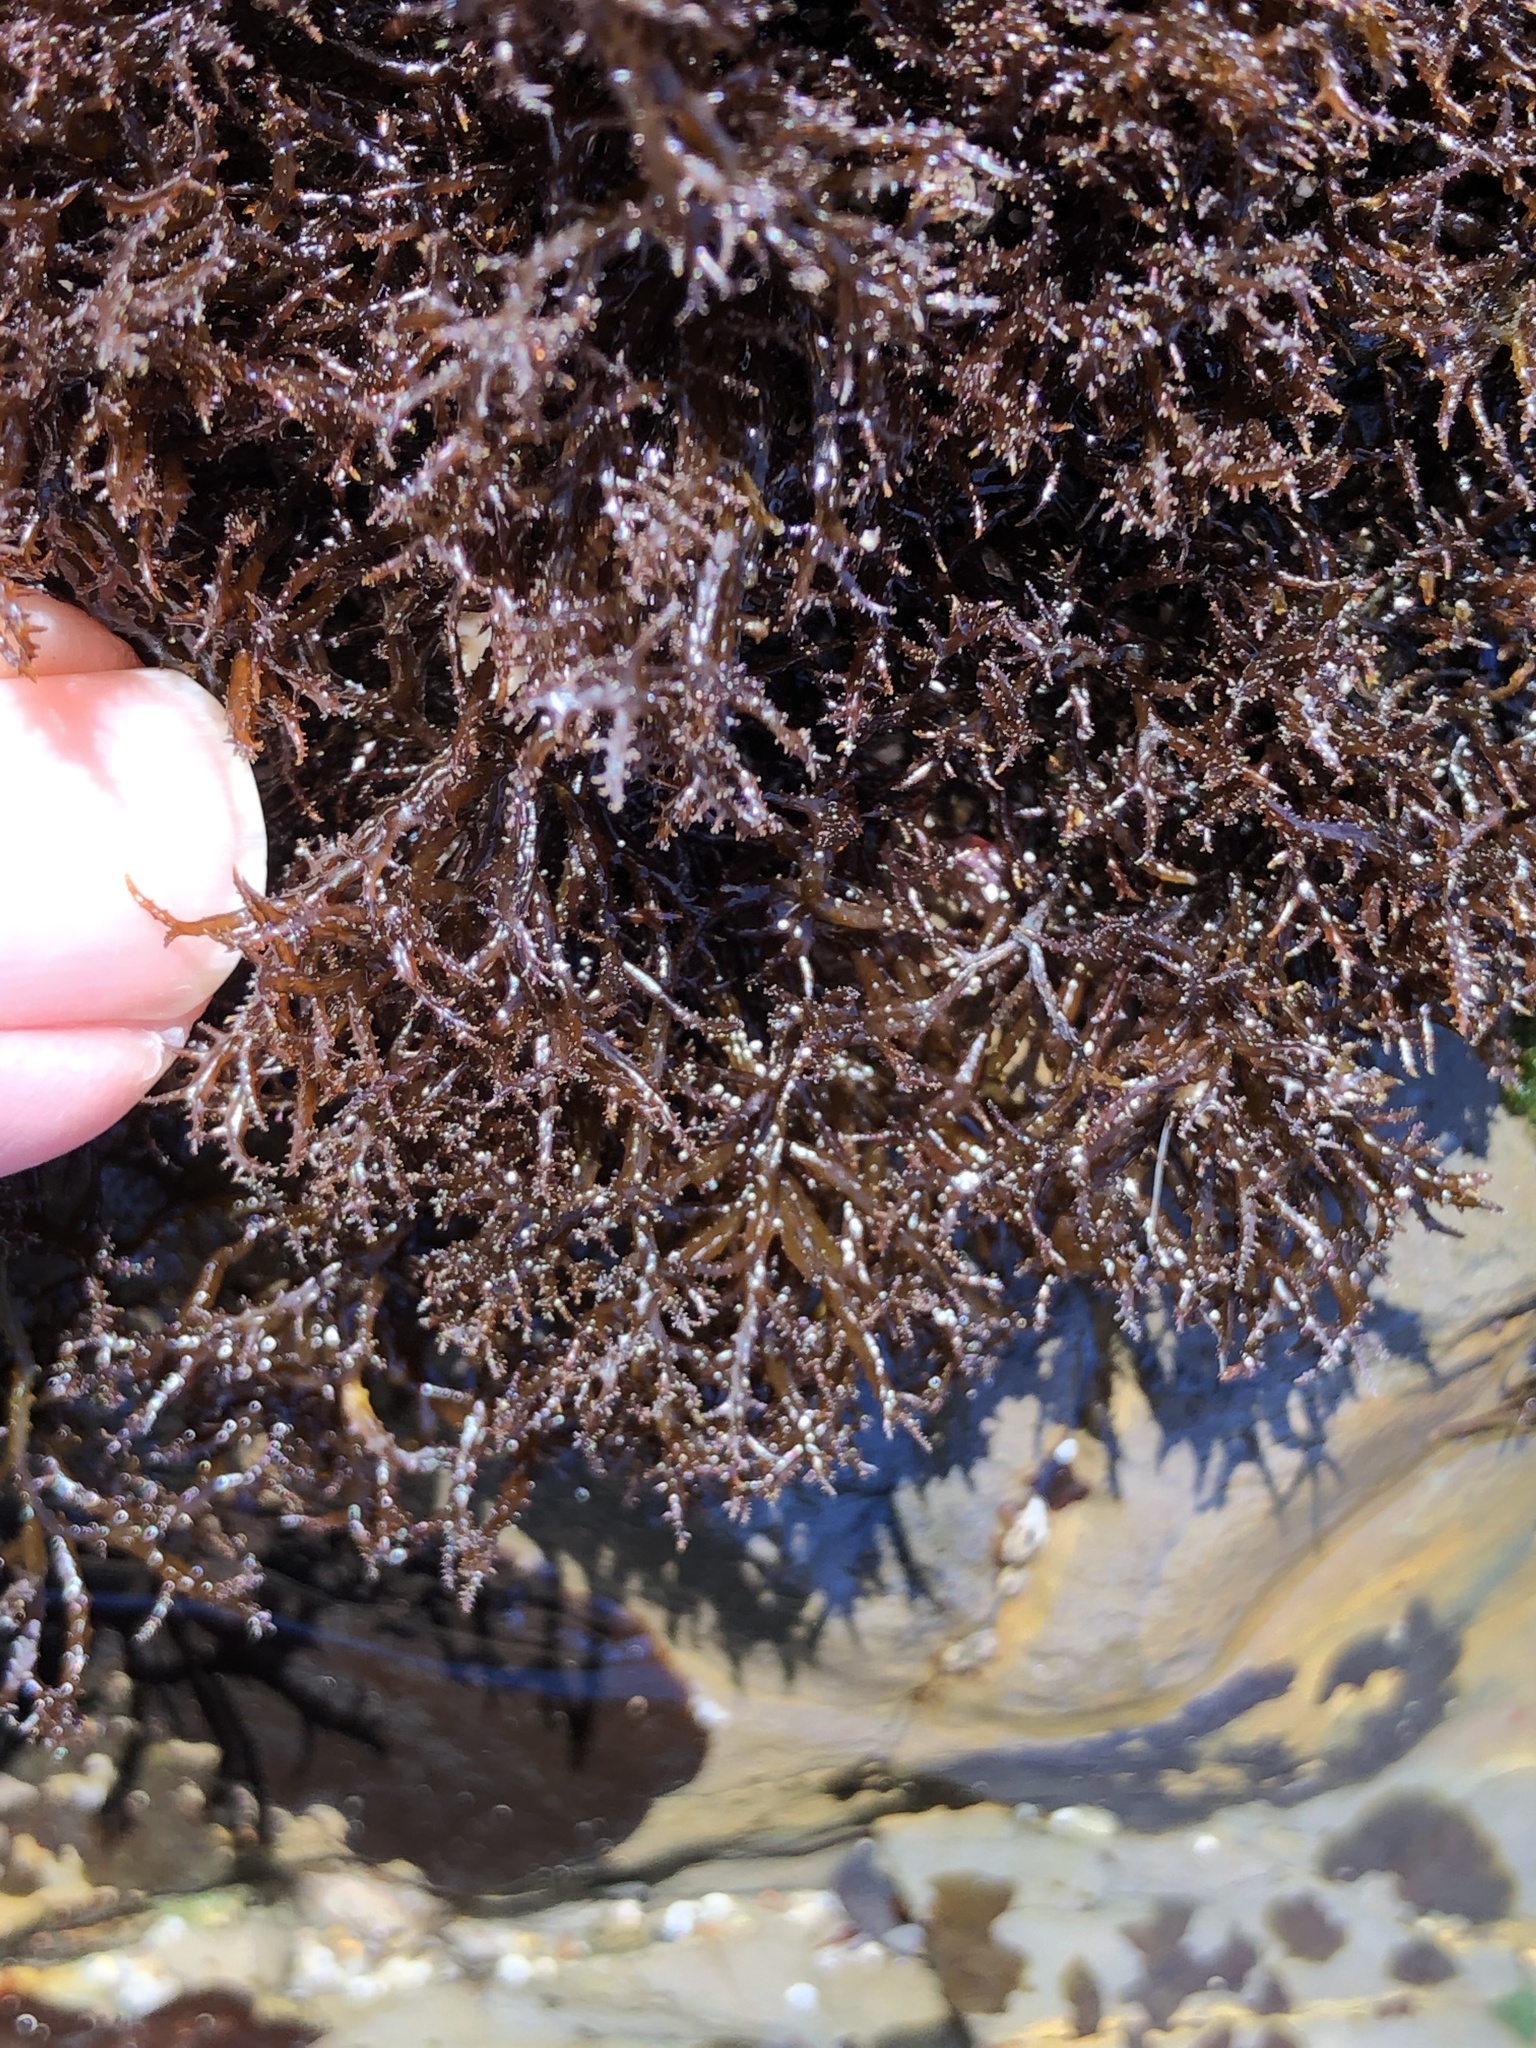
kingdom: Plantae
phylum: Rhodophyta
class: Florideophyceae
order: Gigartinales
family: Endocladiaceae
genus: Endocladia
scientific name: Endocladia muricata
